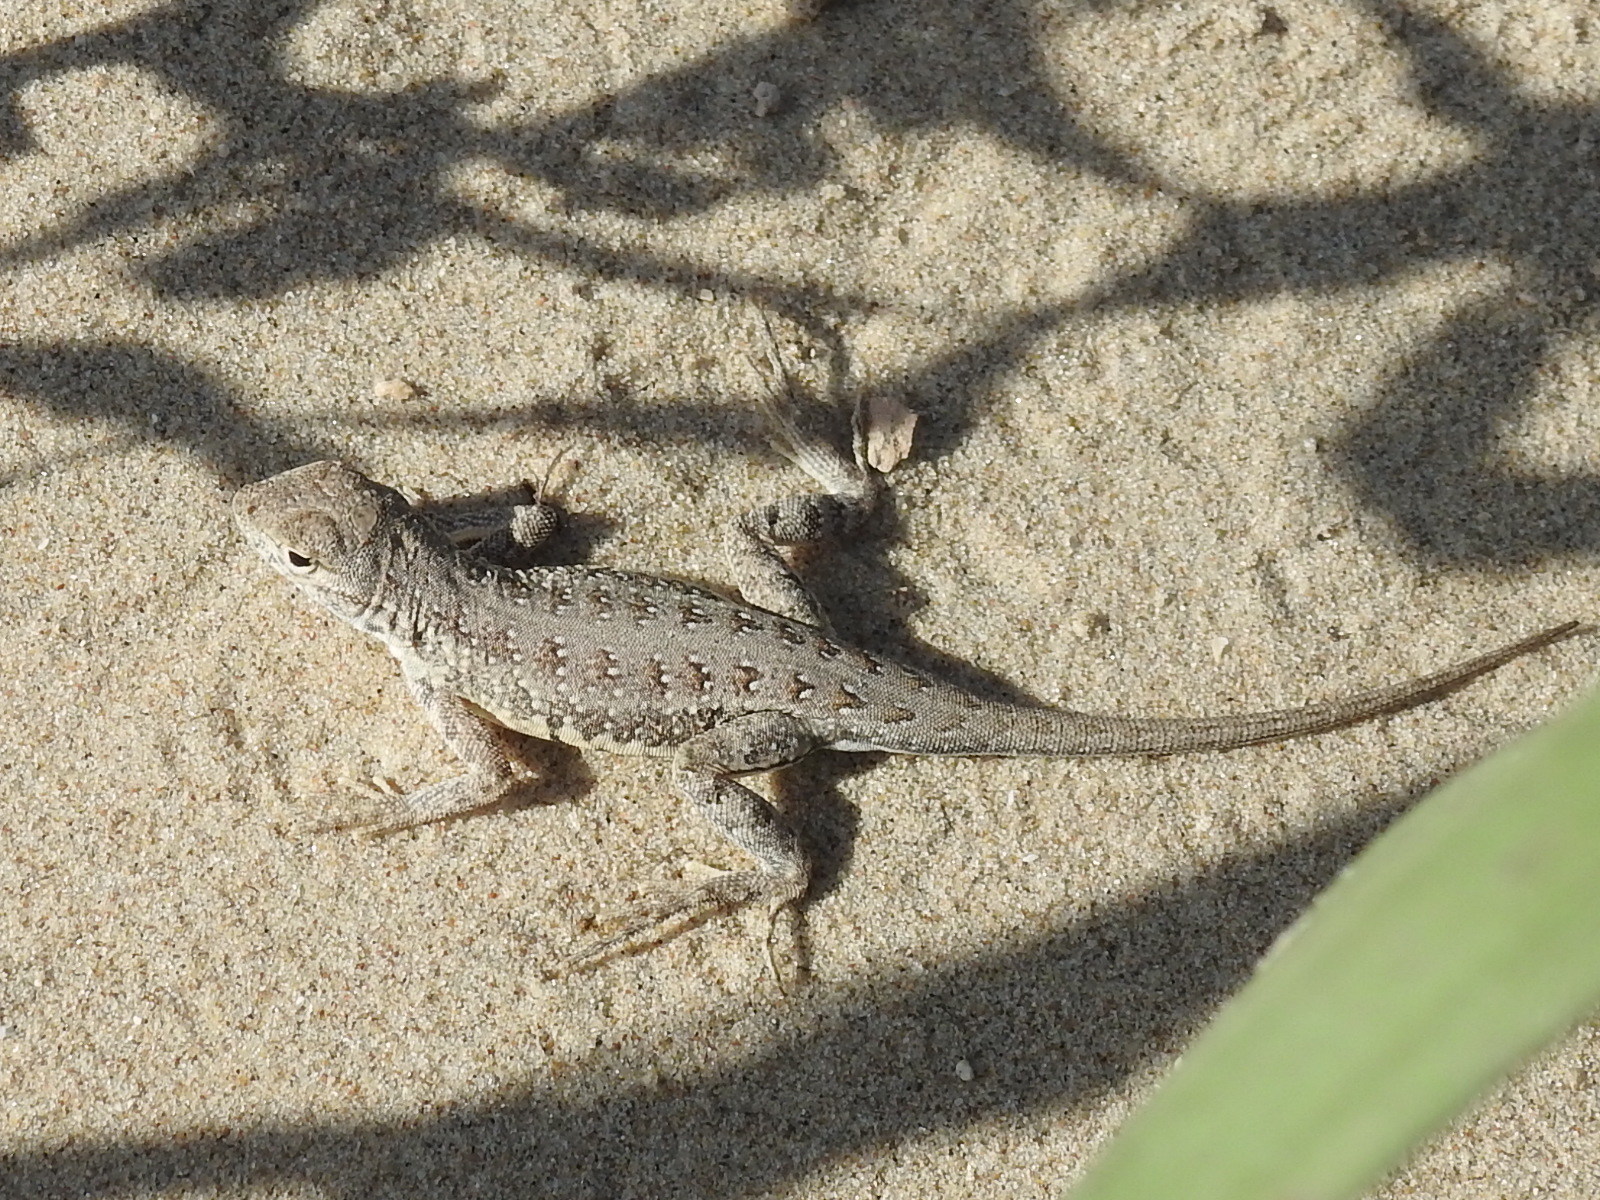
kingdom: Animalia
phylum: Chordata
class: Squamata
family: Phrynosomatidae
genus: Holbrookia
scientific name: Holbrookia propinqua
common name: Keeled earless lizard
